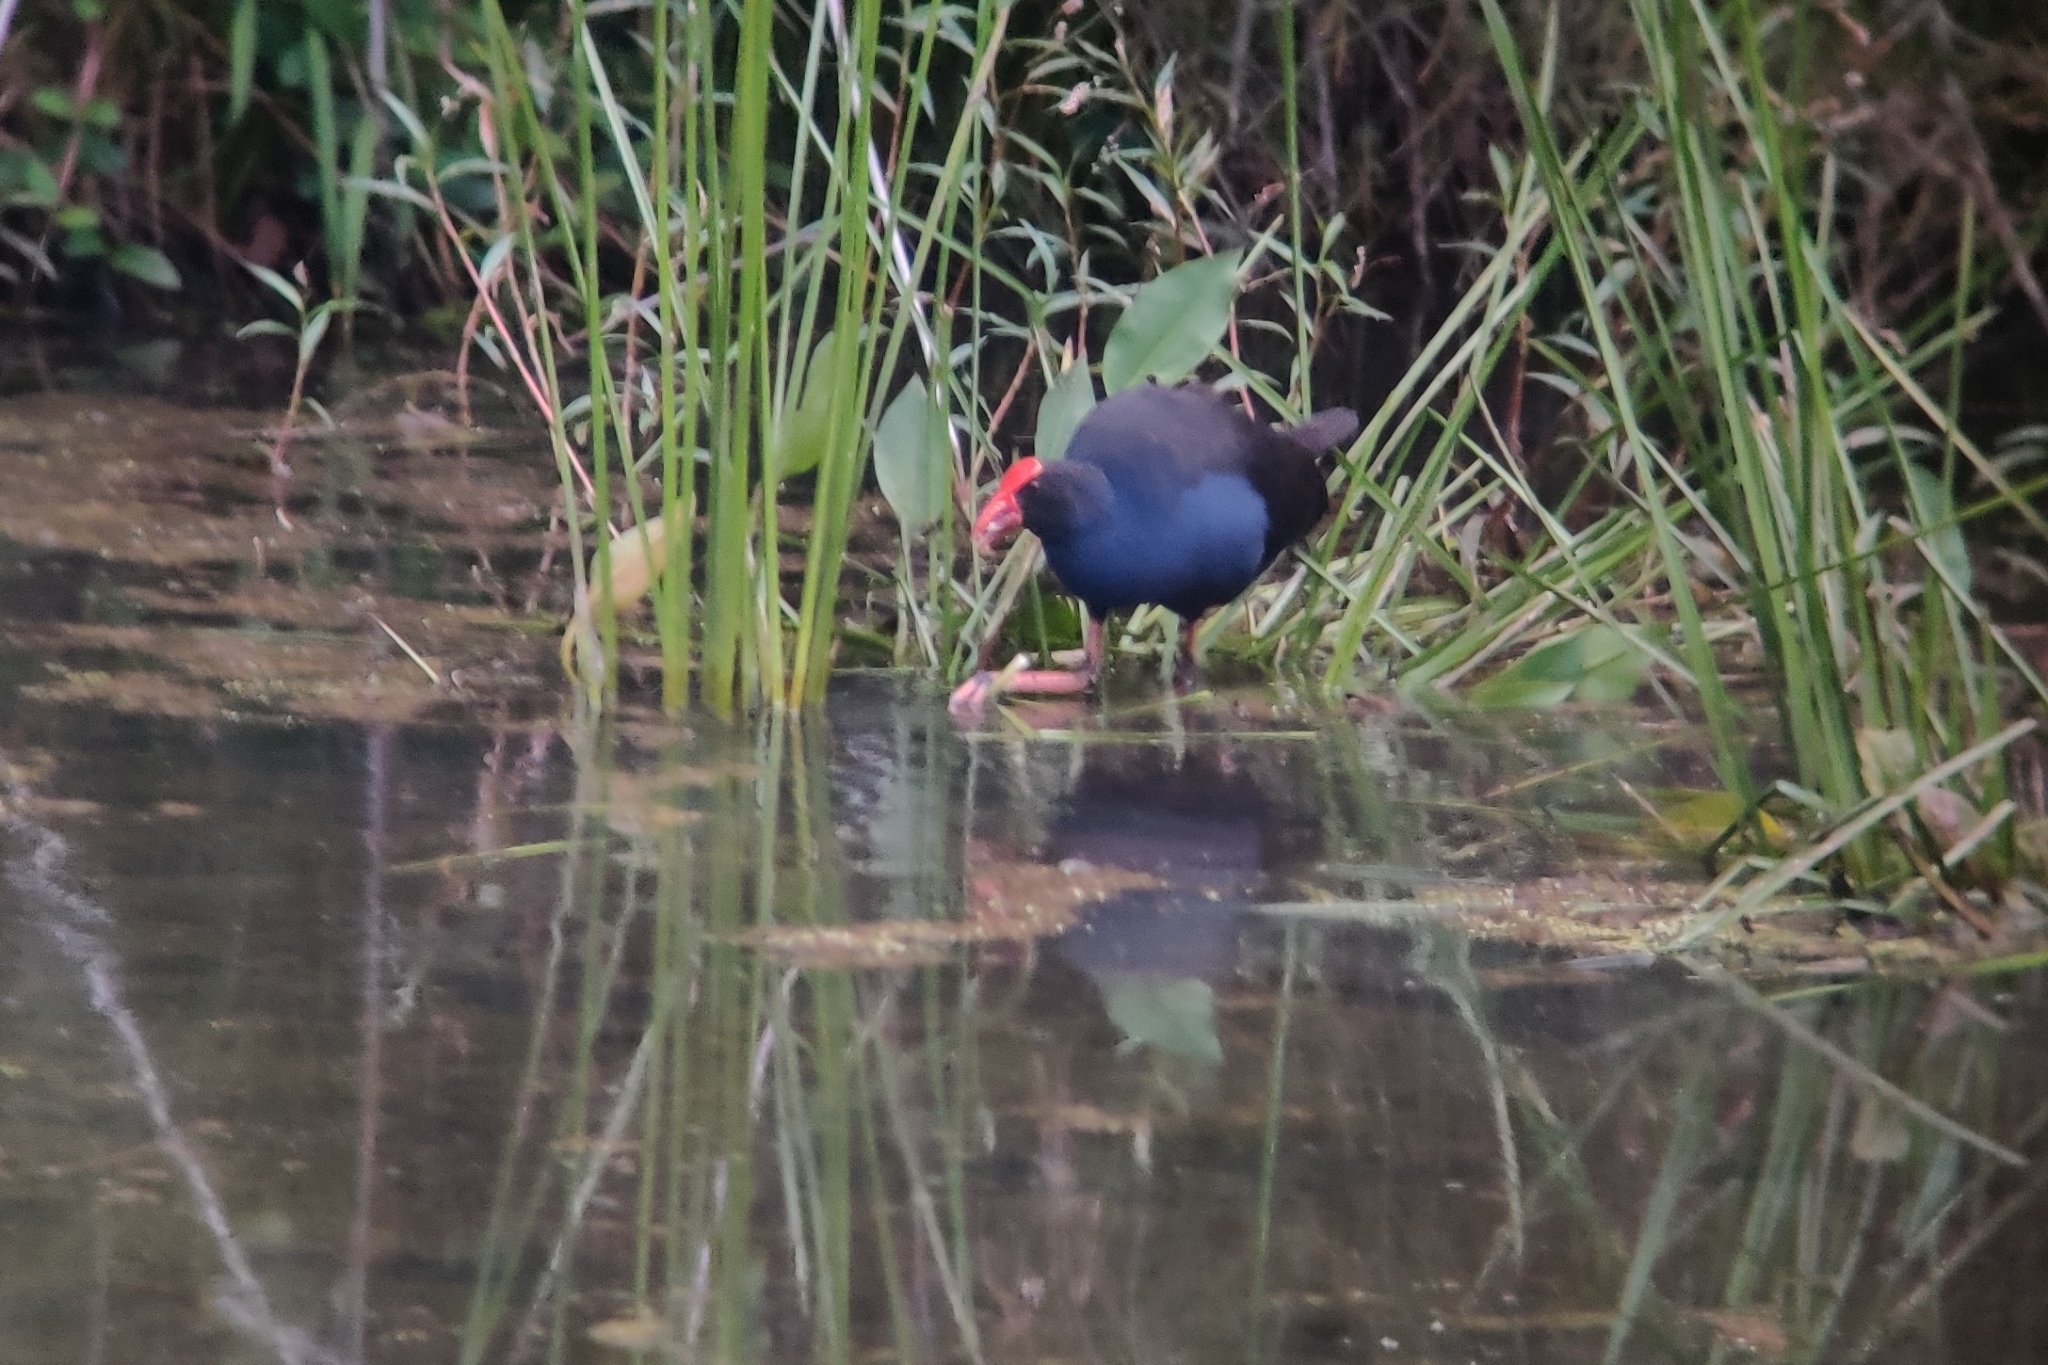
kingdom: Animalia
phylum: Chordata
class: Aves
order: Gruiformes
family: Rallidae
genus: Porphyrio
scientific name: Porphyrio melanotus
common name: Australasian swamphen
